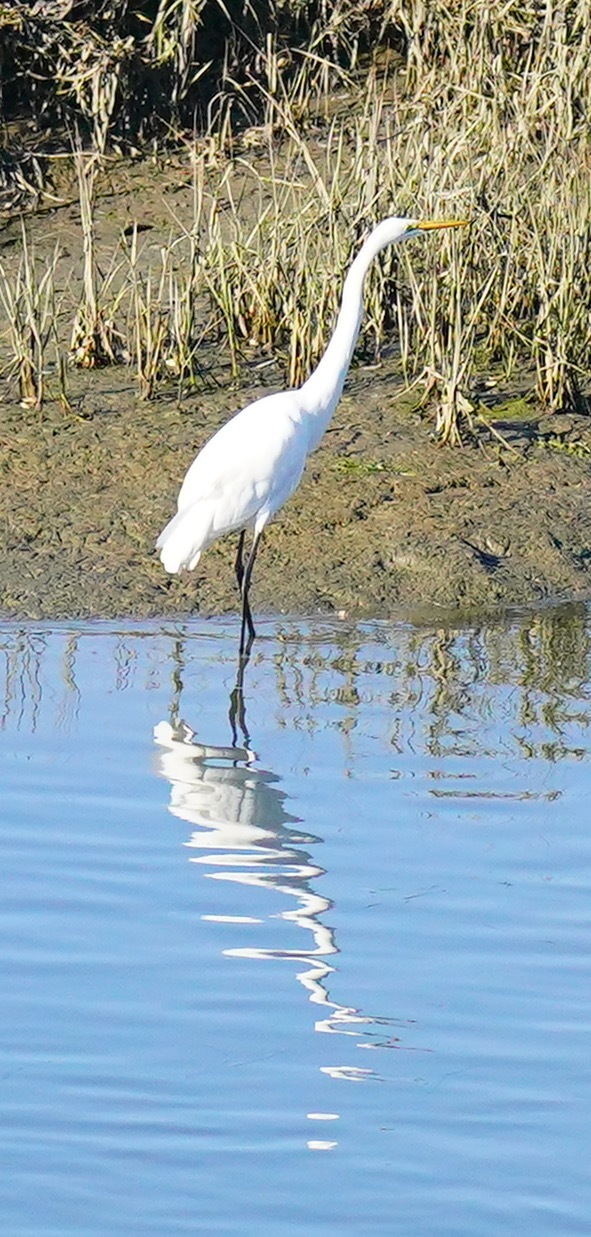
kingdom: Animalia
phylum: Chordata
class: Aves
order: Pelecaniformes
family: Ardeidae
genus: Ardea
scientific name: Ardea alba
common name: Great egret
